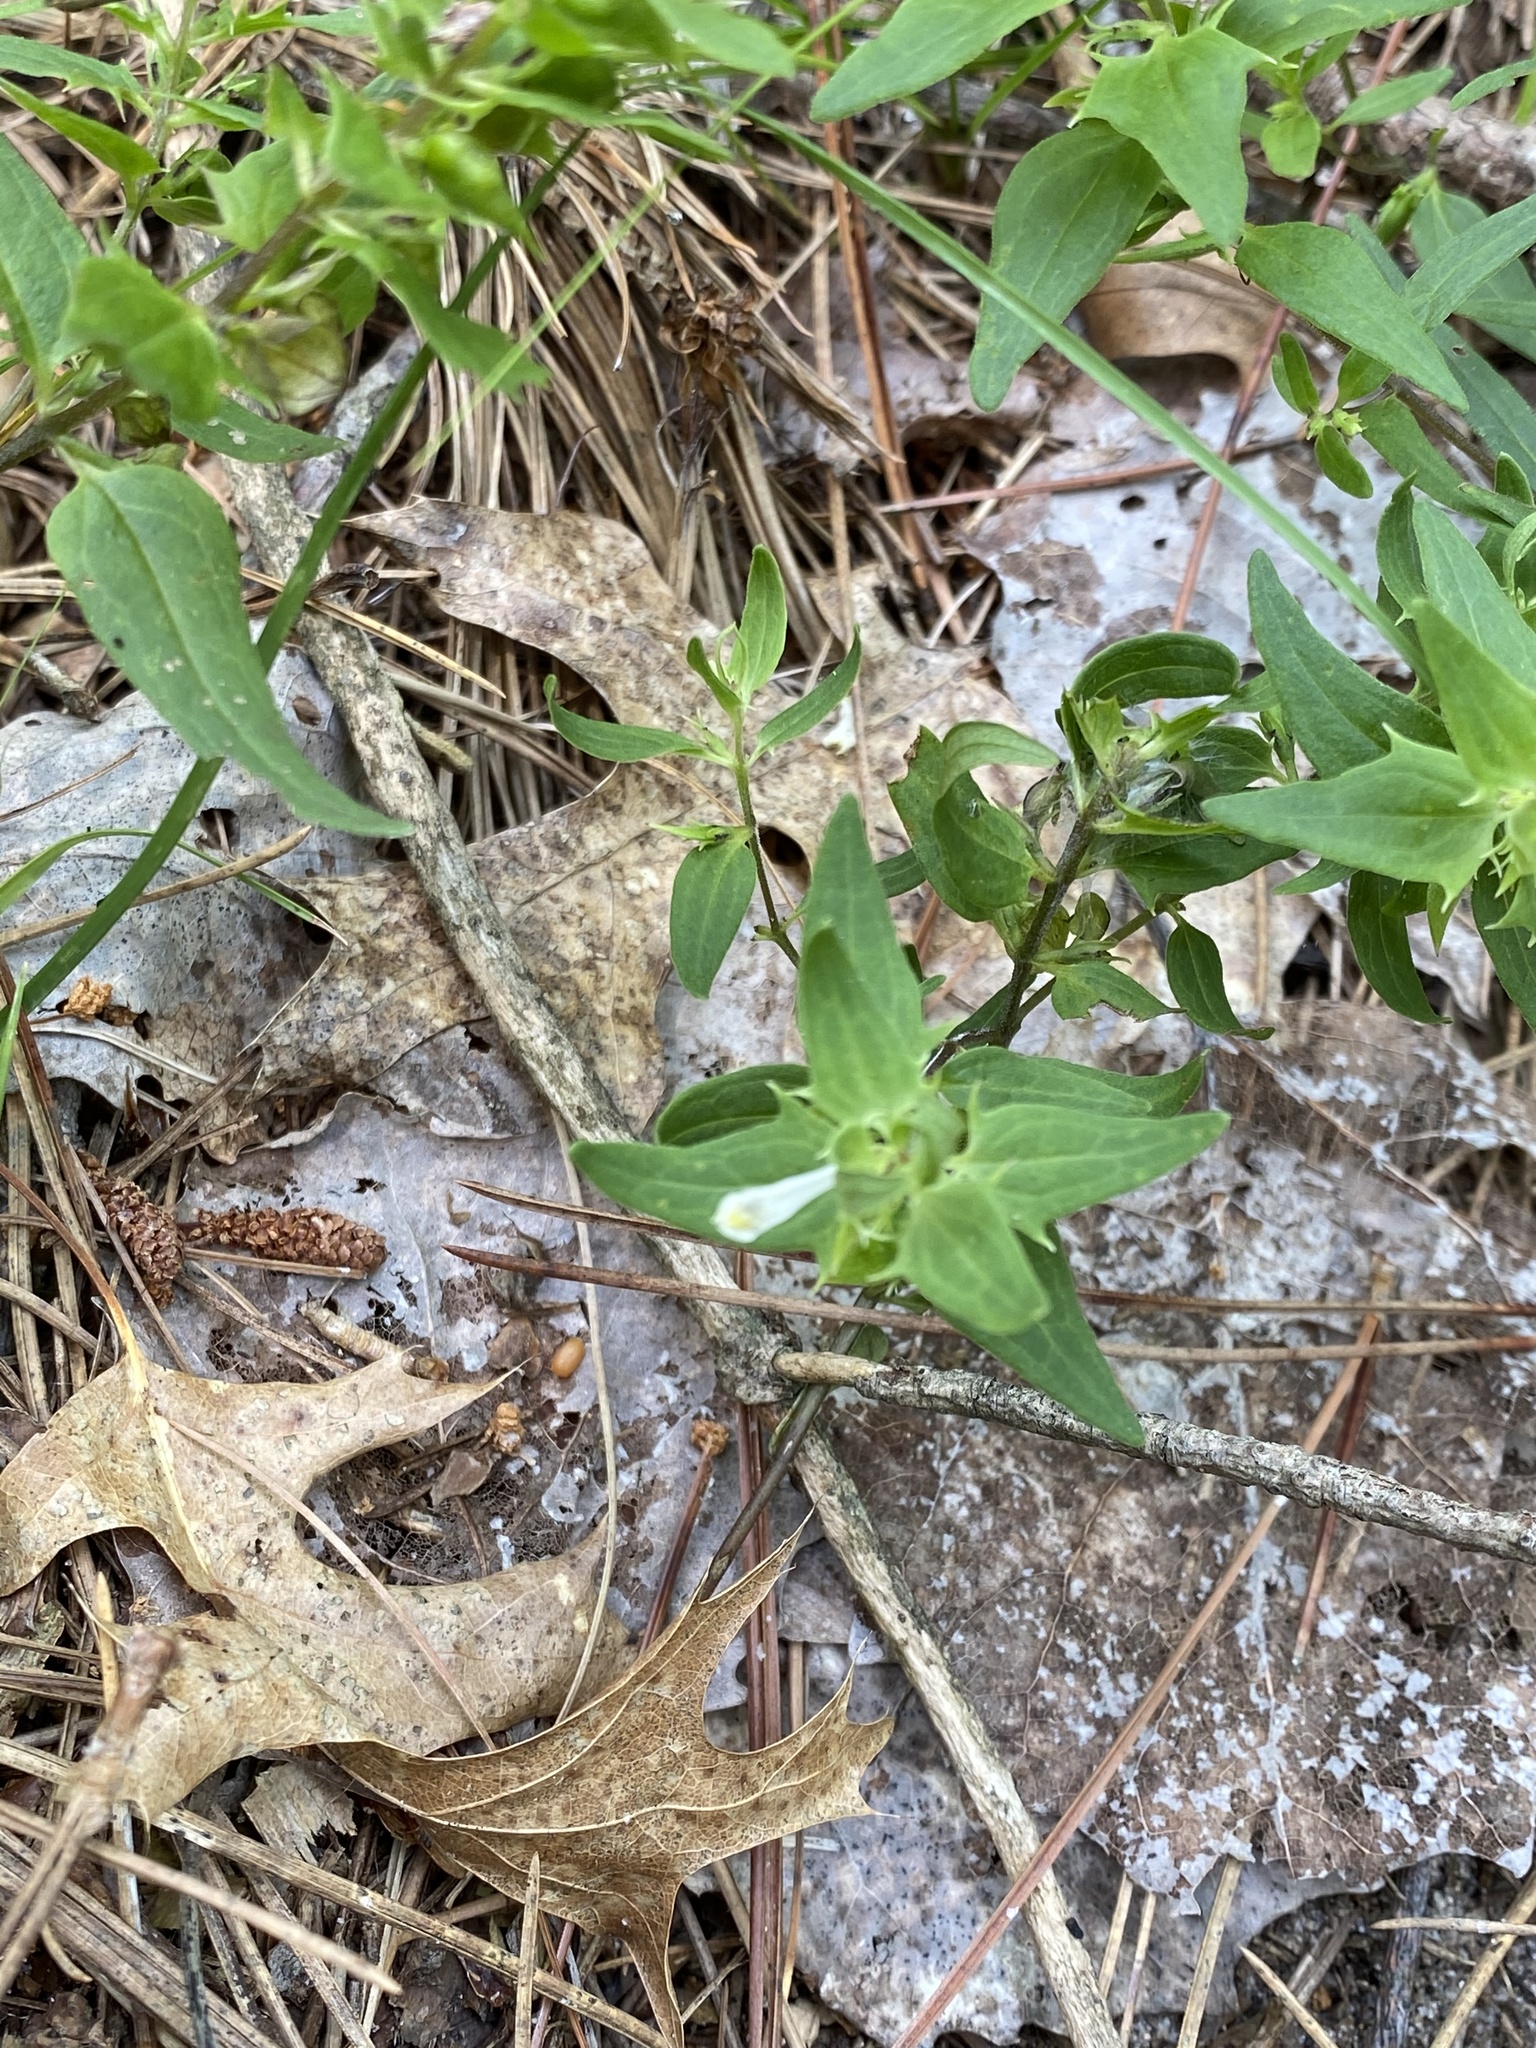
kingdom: Plantae
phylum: Tracheophyta
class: Magnoliopsida
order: Lamiales
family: Orobanchaceae
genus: Melampyrum
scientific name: Melampyrum lineare
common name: American cow-wheat
